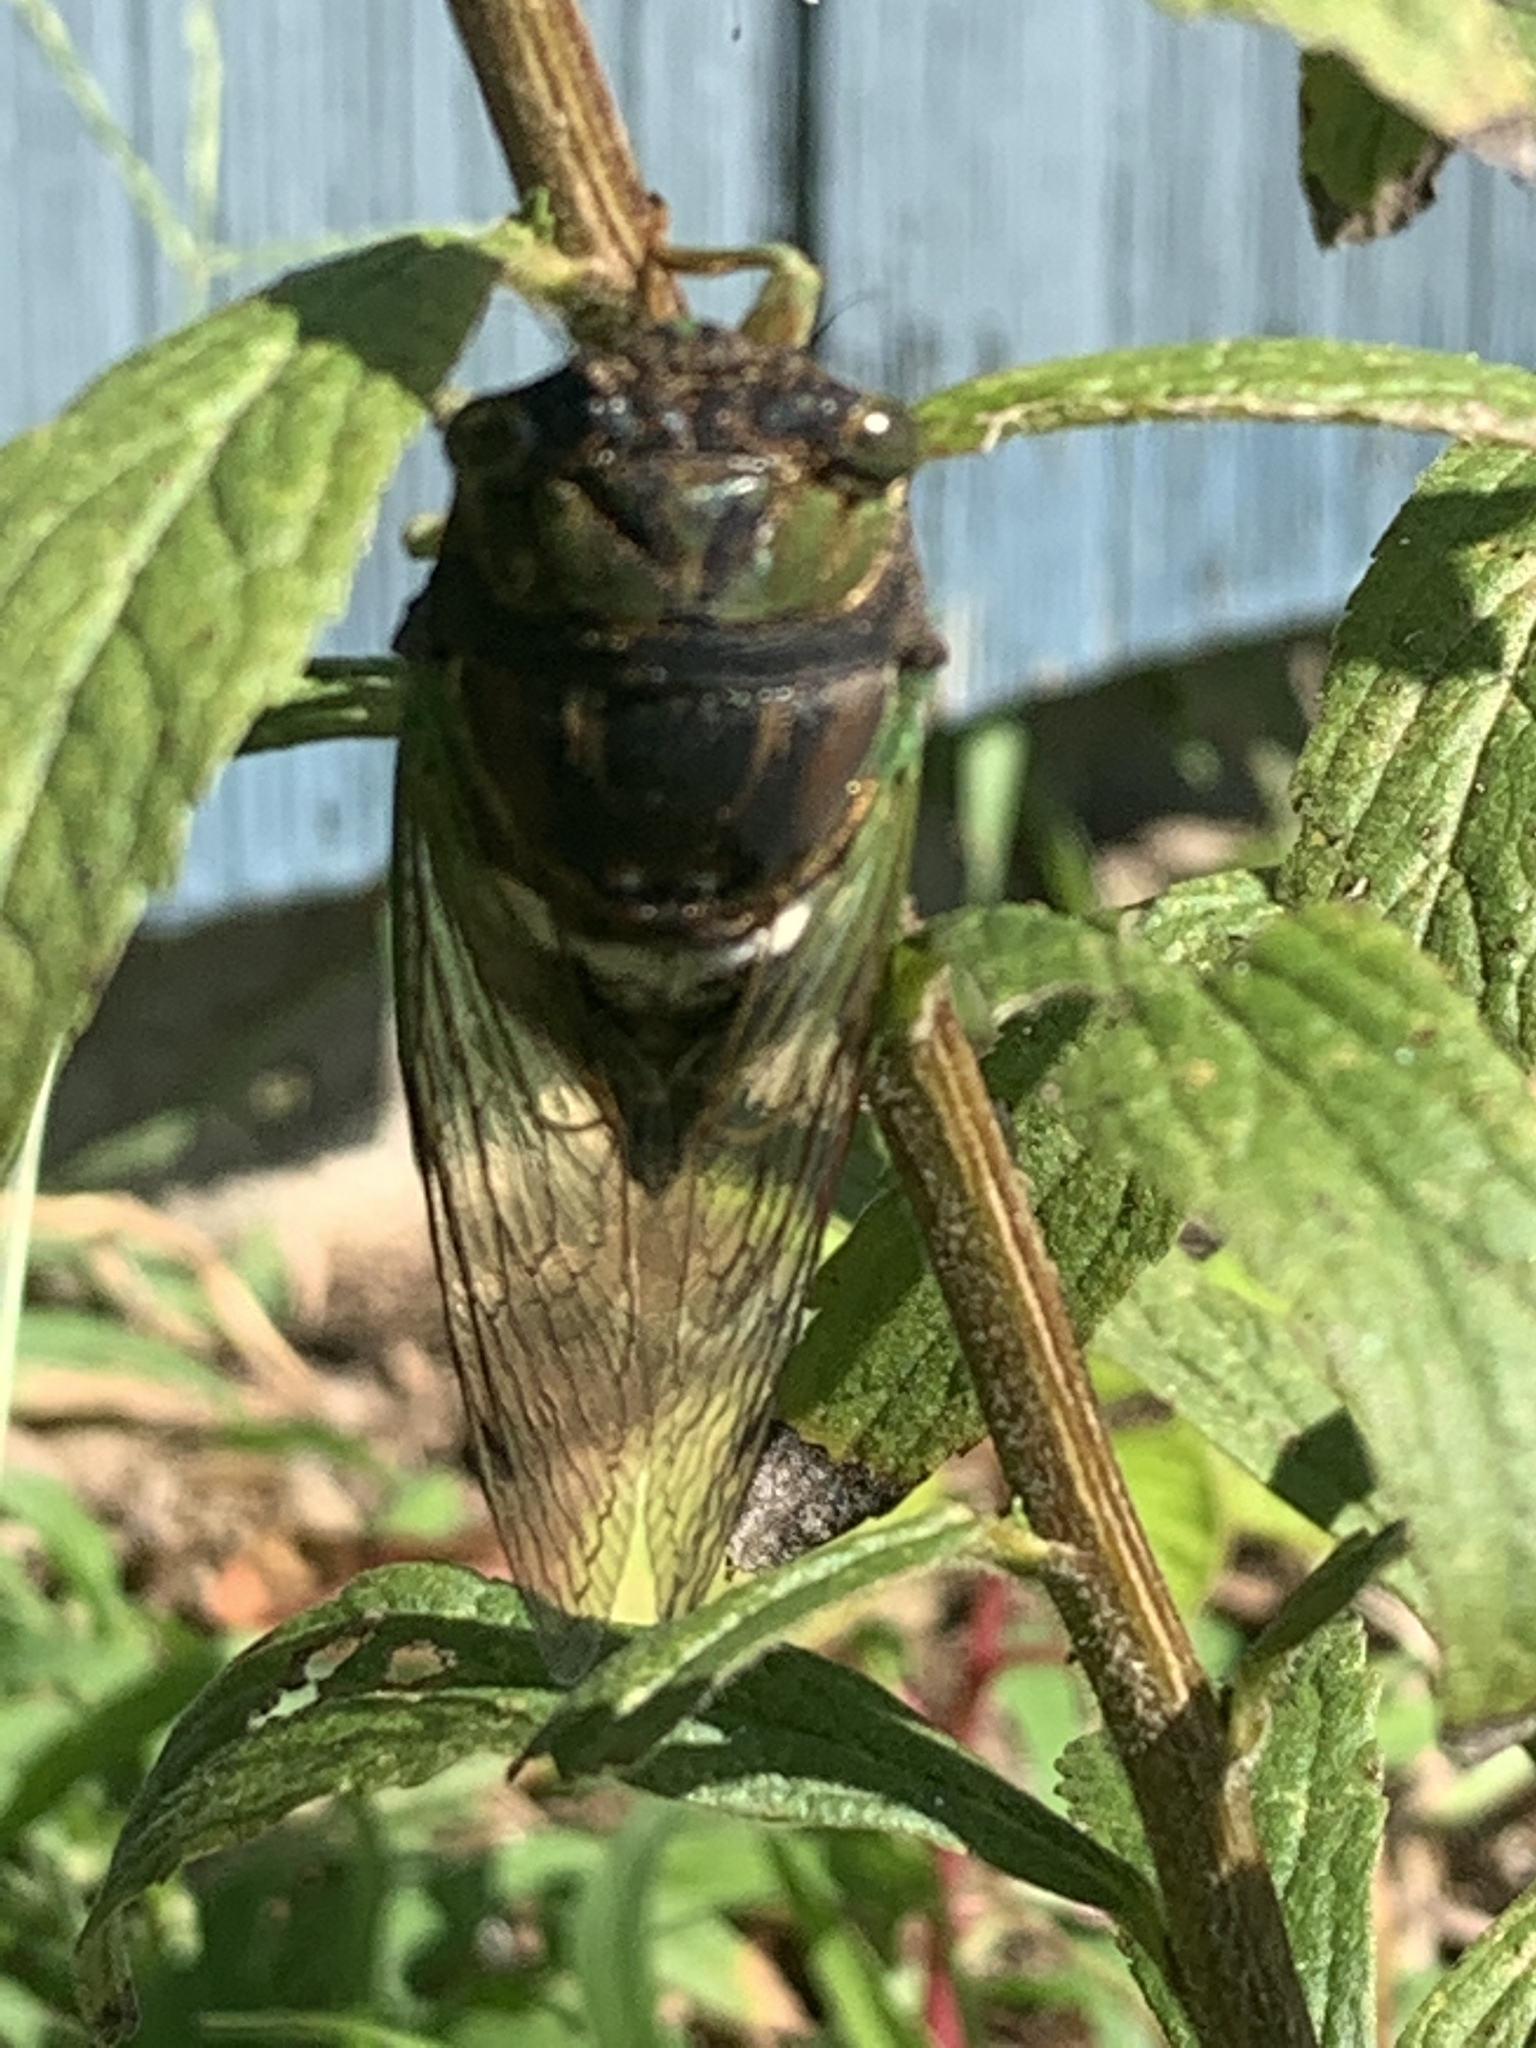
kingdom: Animalia
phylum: Arthropoda
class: Insecta
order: Hemiptera
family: Cicadidae
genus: Neotibicen
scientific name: Neotibicen tibicen
